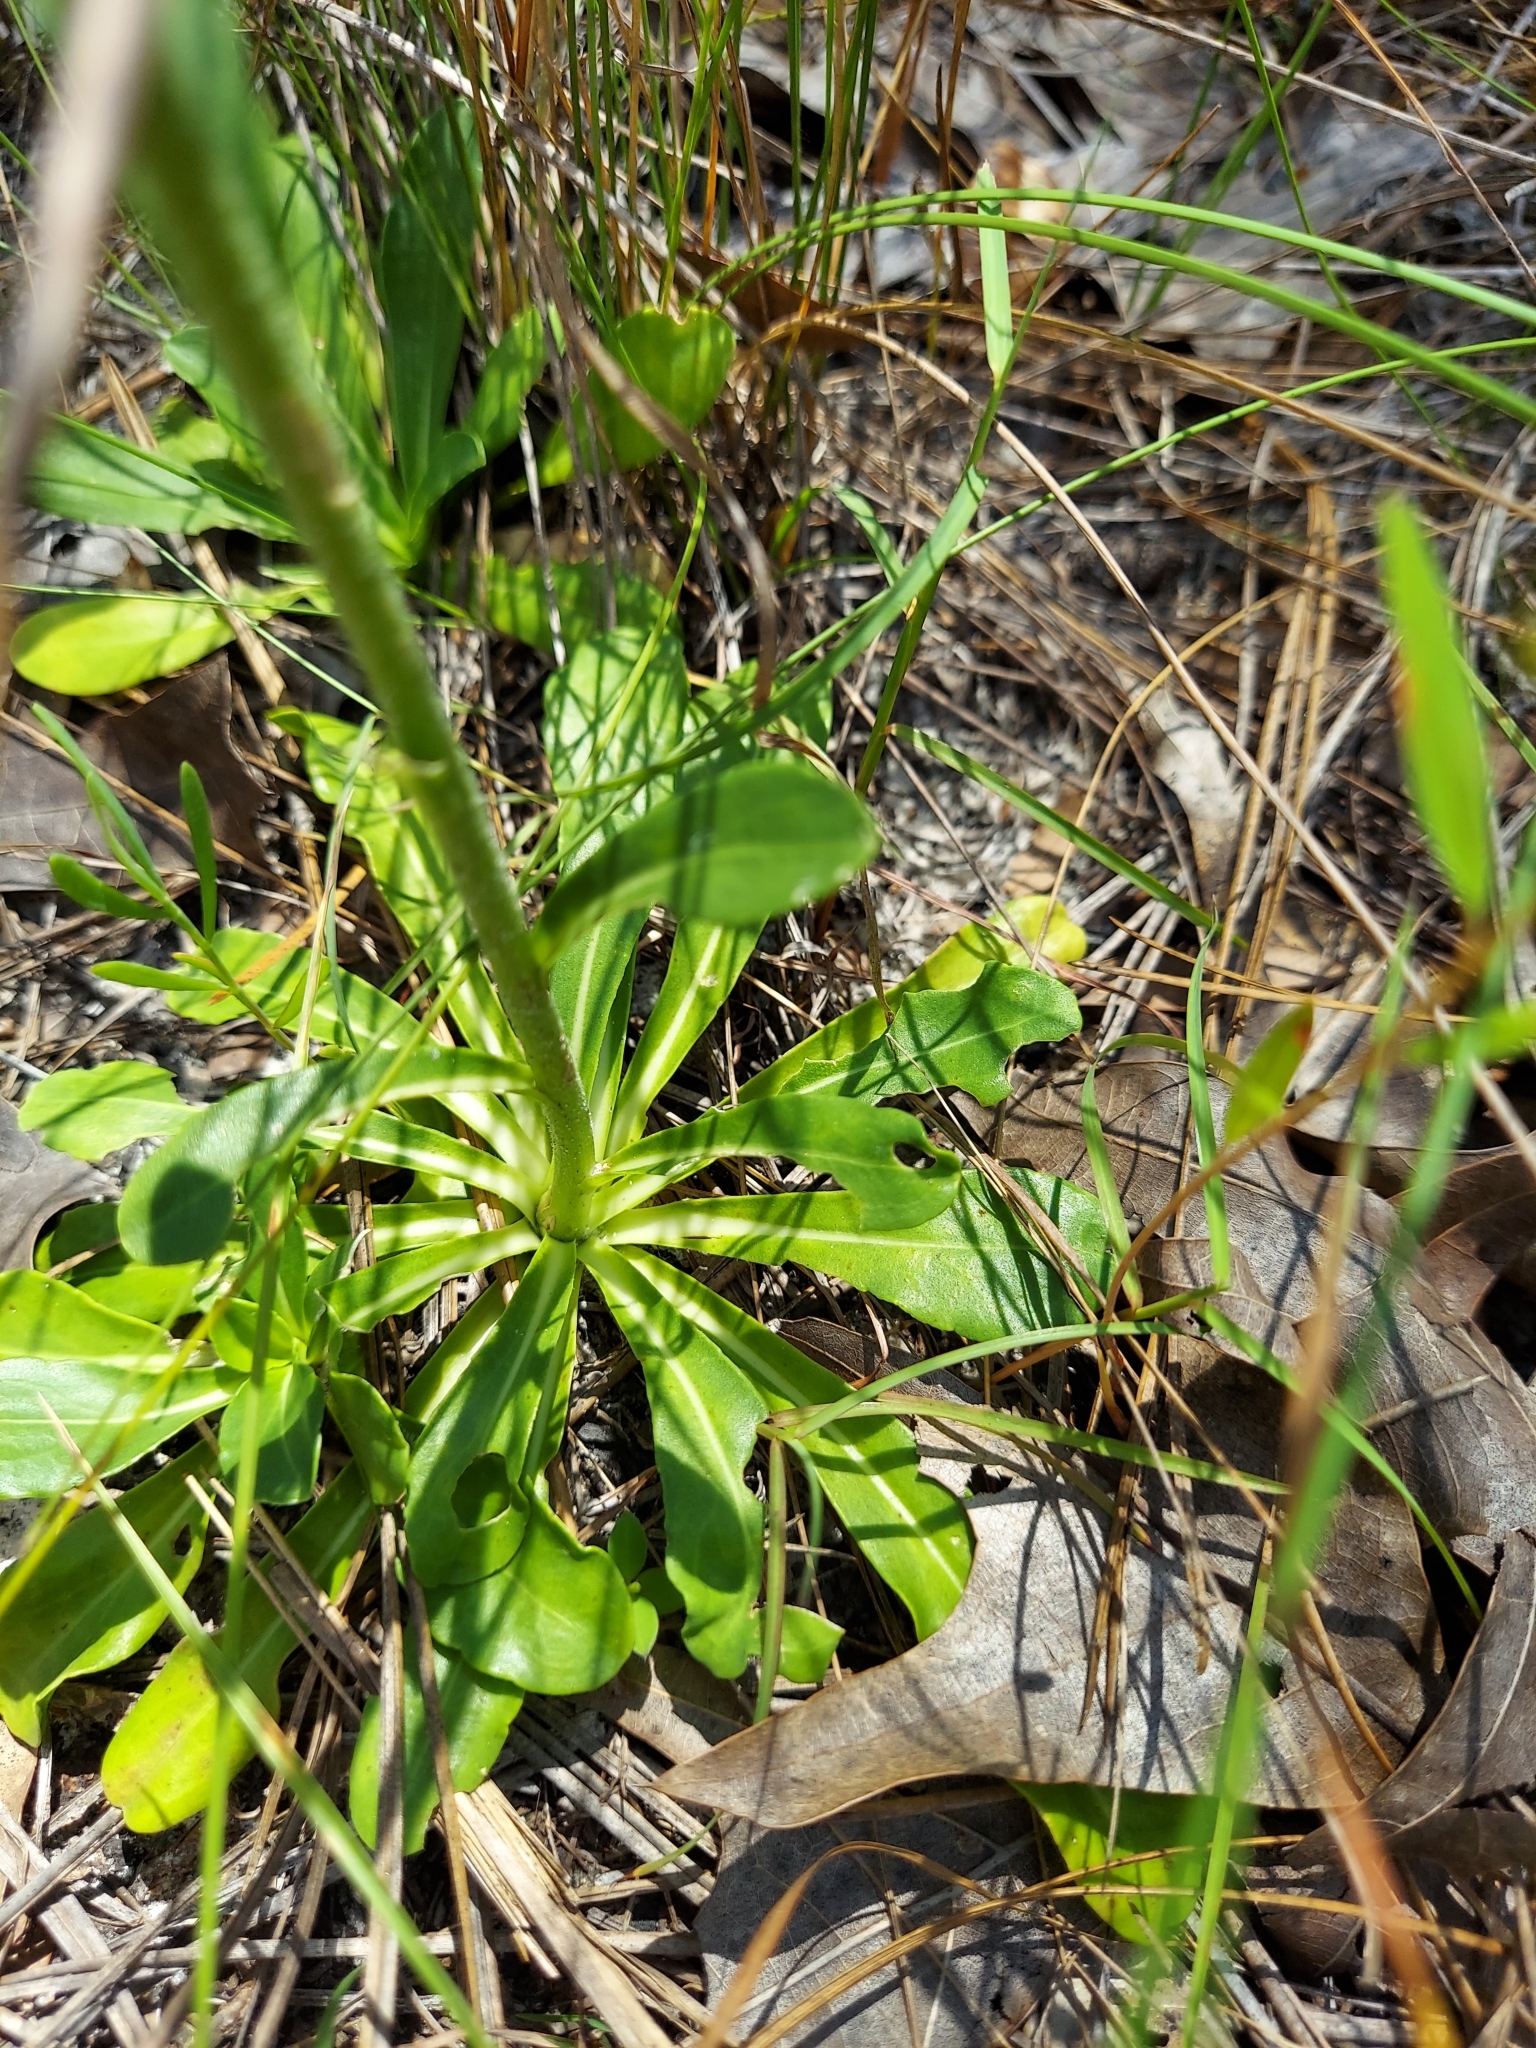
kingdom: Plantae
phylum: Tracheophyta
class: Magnoliopsida
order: Asterales
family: Asteraceae
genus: Carphephorus
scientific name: Carphephorus corymbosus
